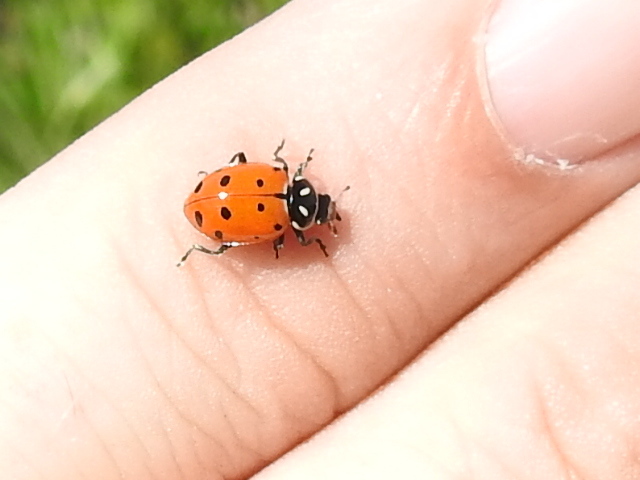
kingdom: Animalia
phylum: Arthropoda
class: Insecta
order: Coleoptera
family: Coccinellidae
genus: Hippodamia
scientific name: Hippodamia convergens
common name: Convergent lady beetle
